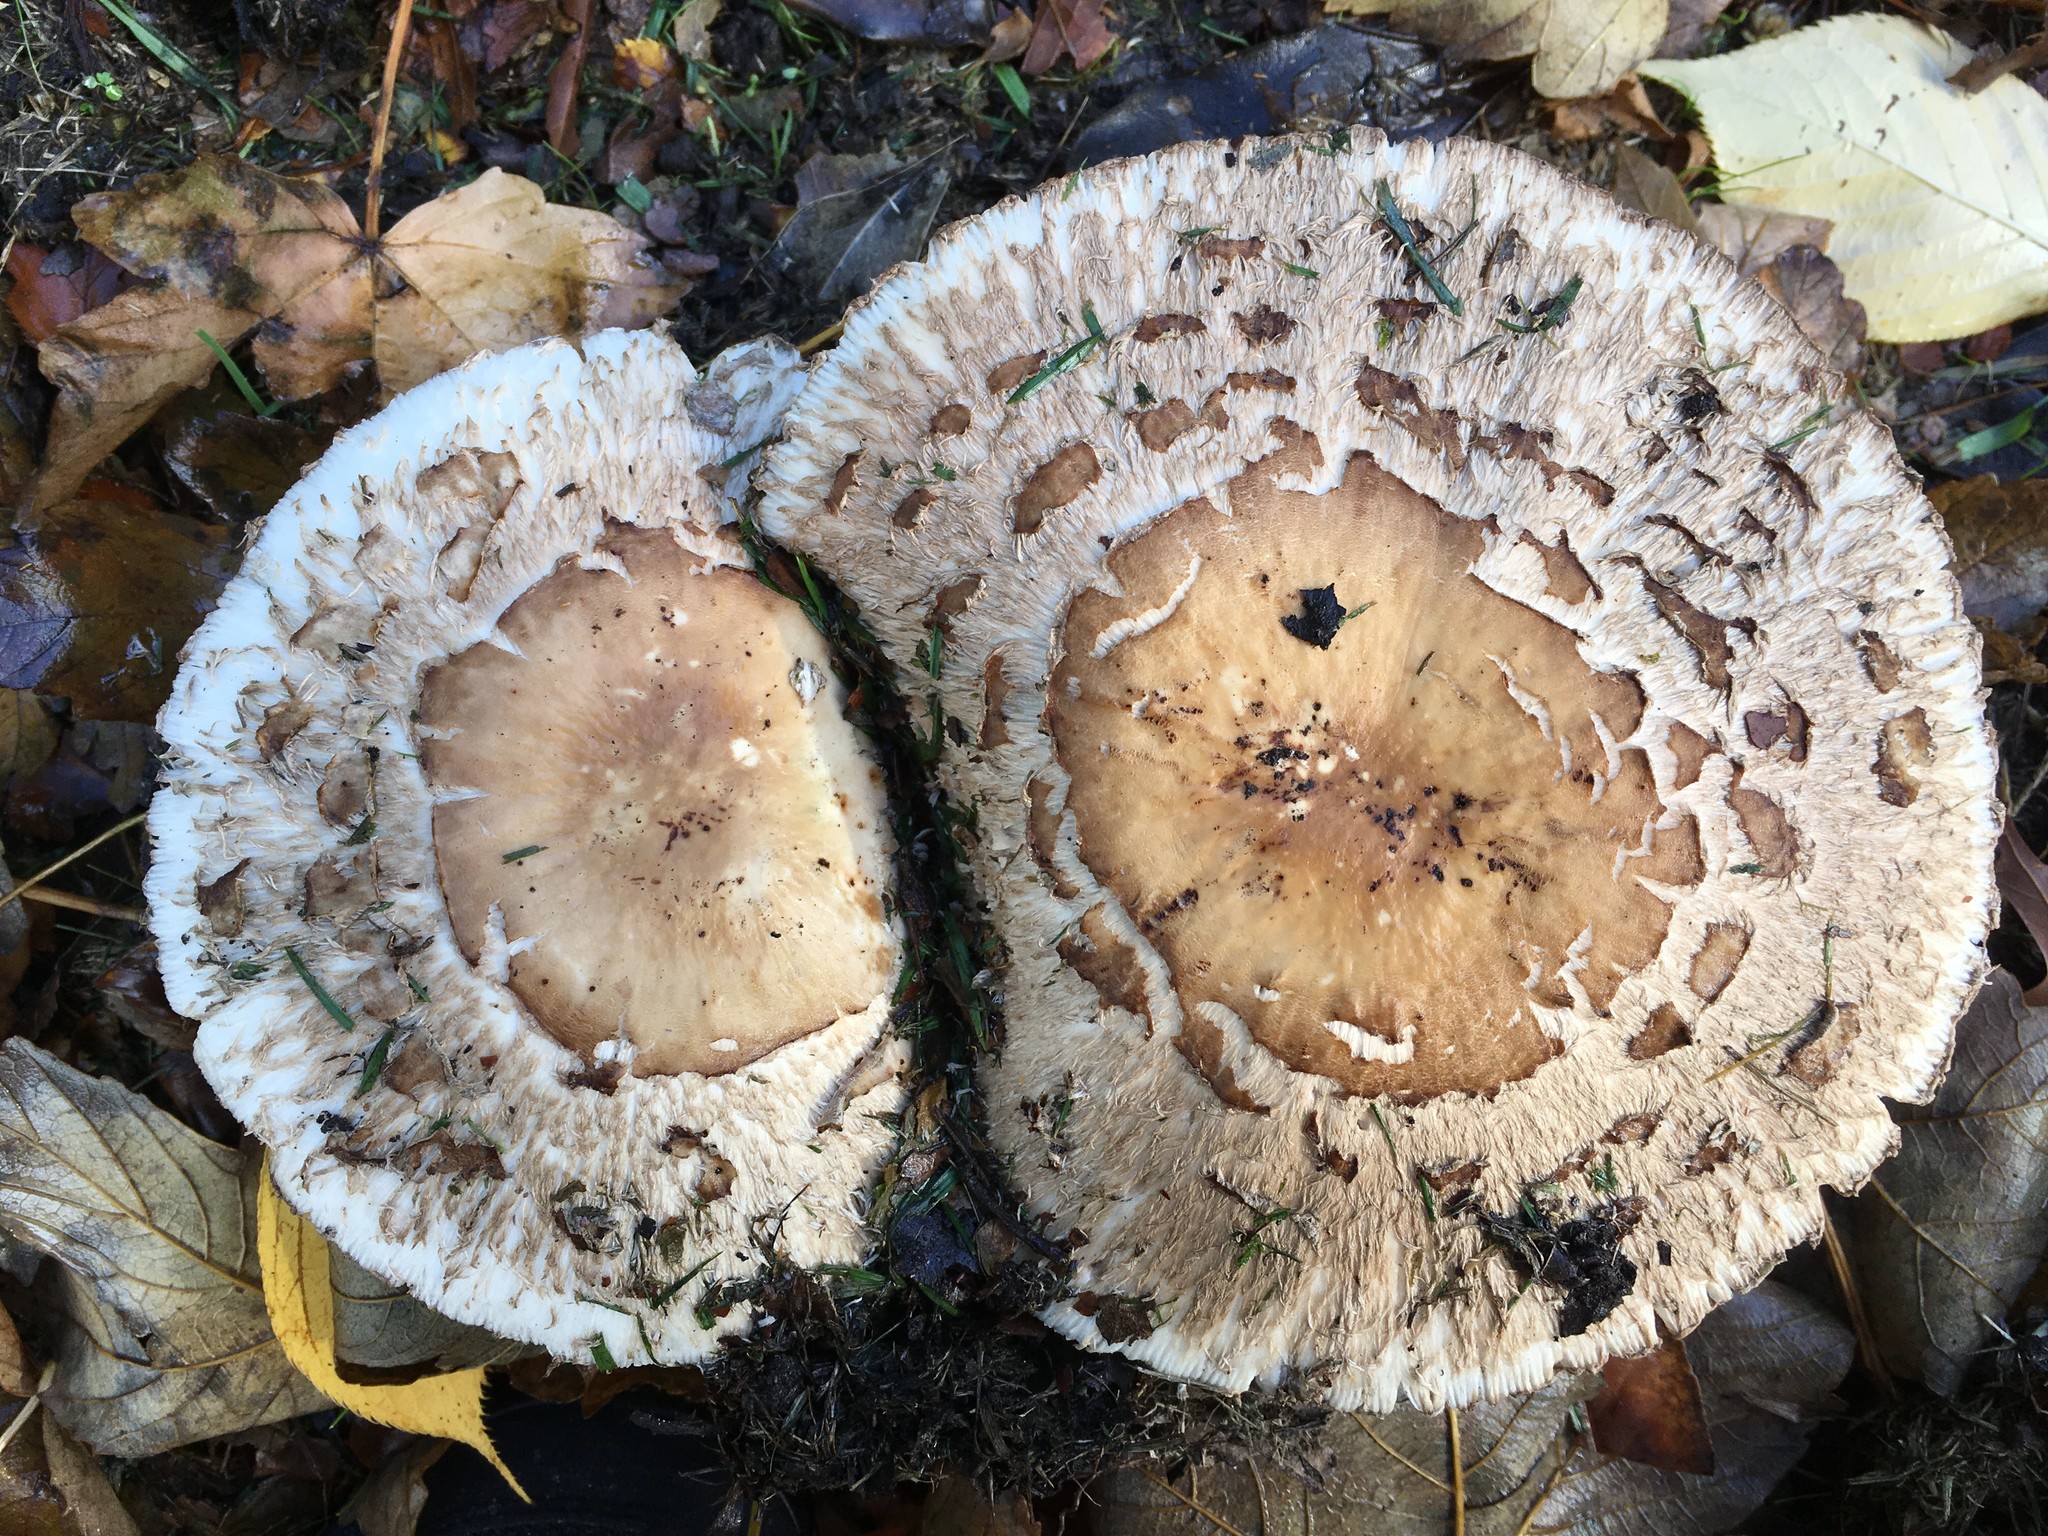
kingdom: Fungi
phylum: Basidiomycota
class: Agaricomycetes
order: Agaricales
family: Agaricaceae
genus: Chlorophyllum
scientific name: Chlorophyllum
